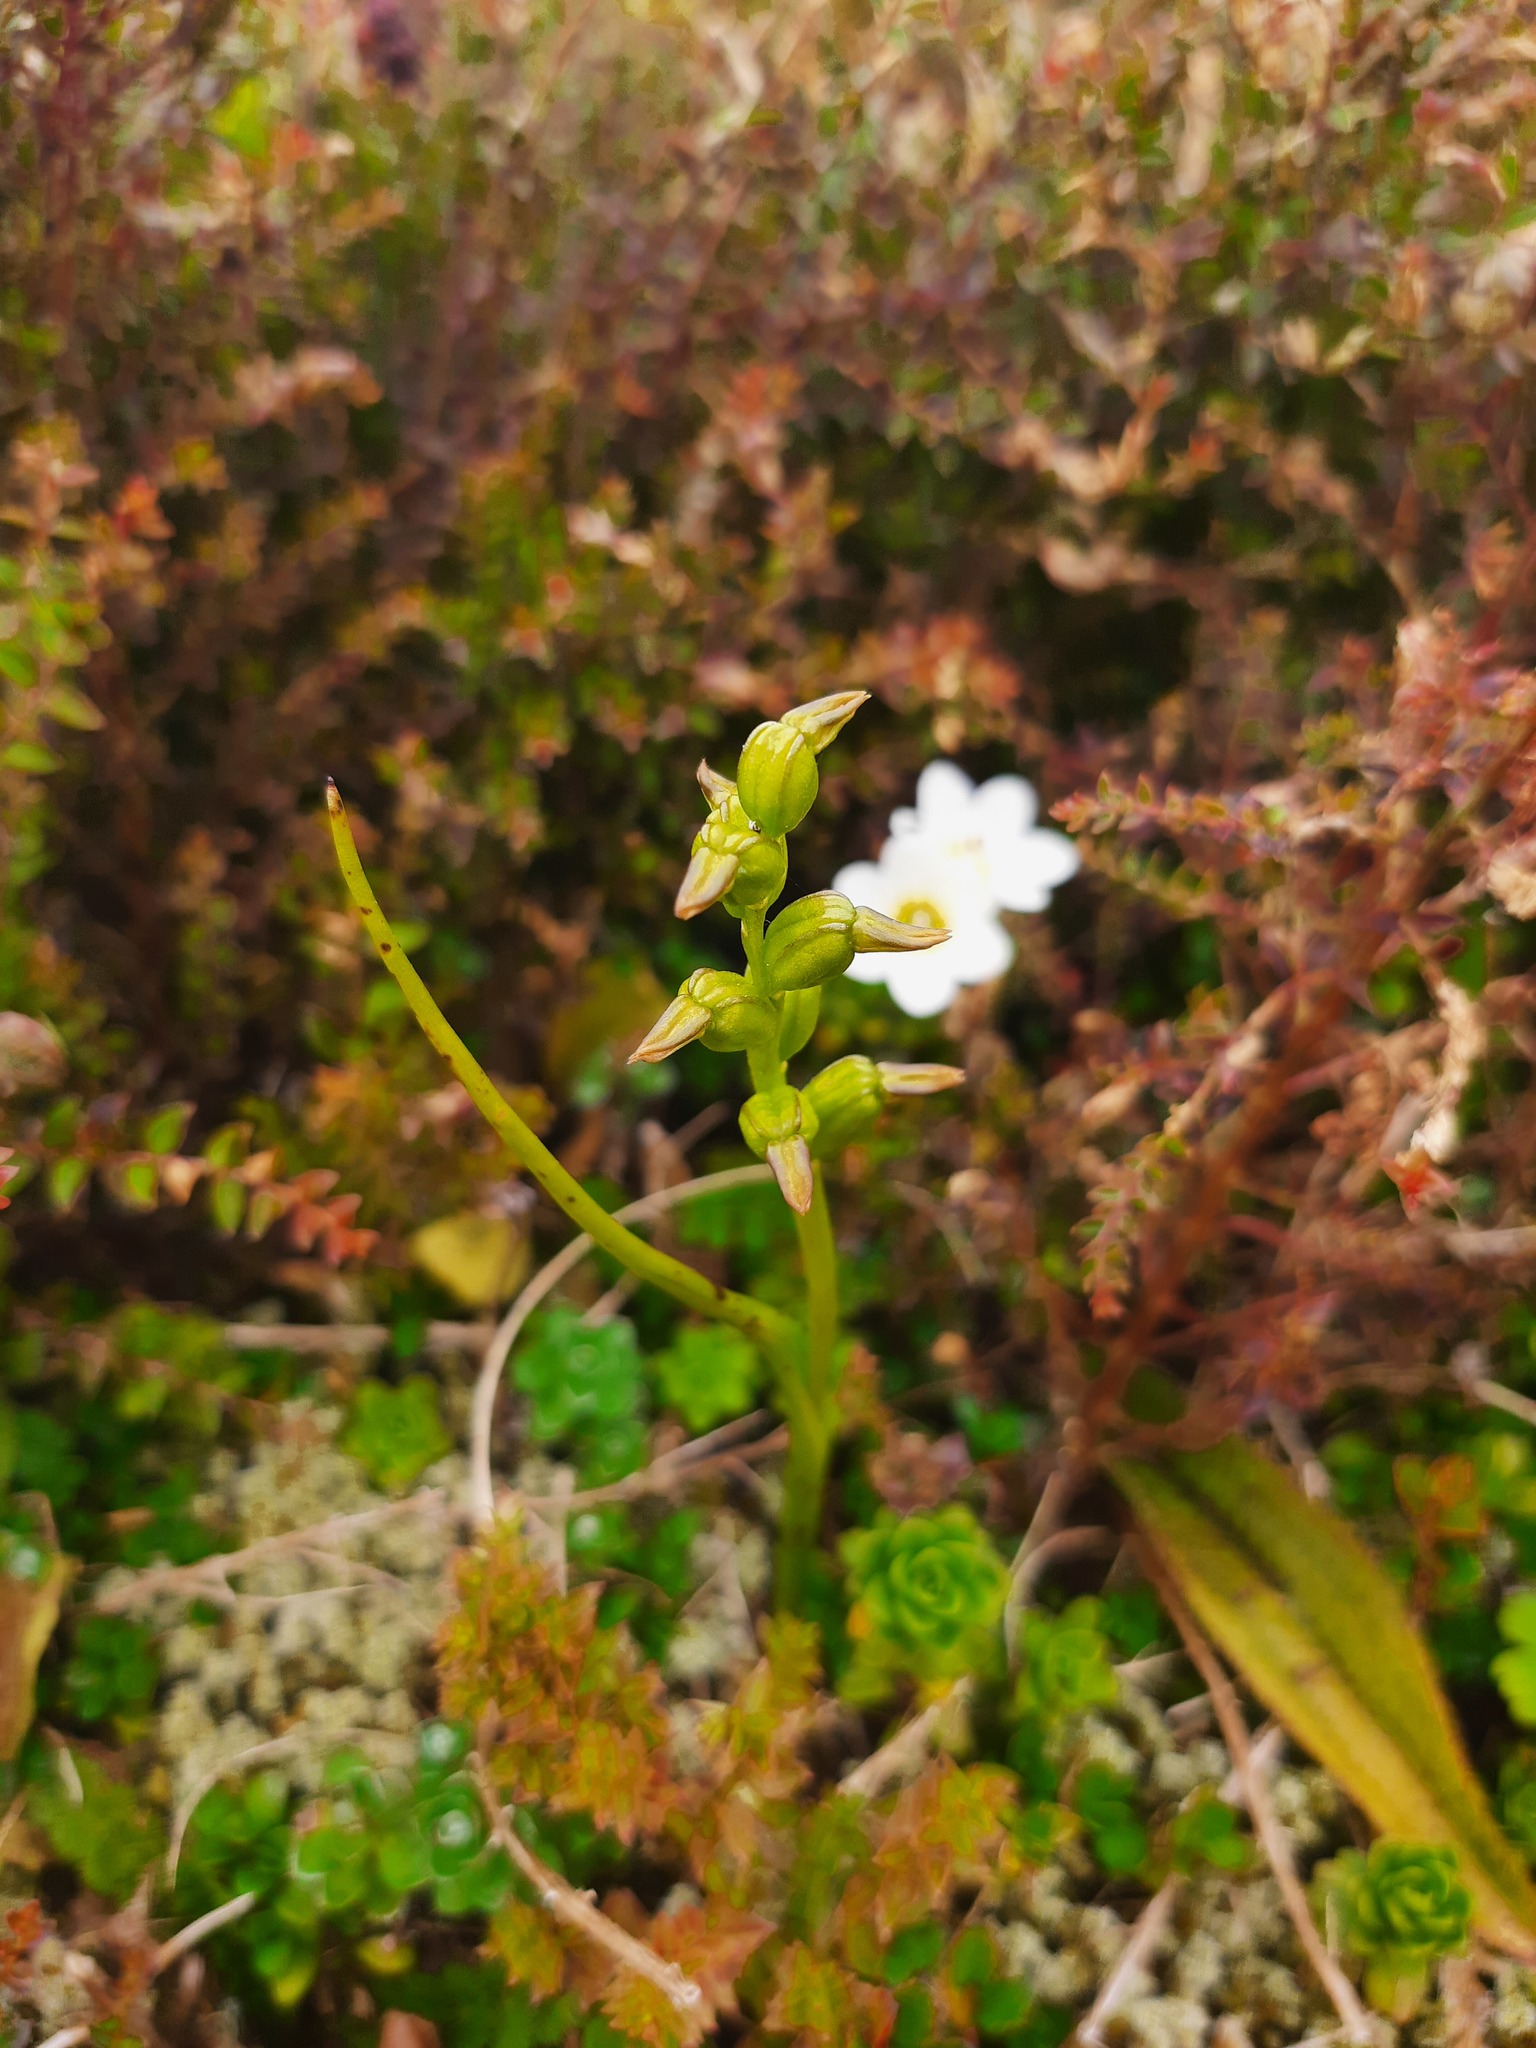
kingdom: Plantae
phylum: Tracheophyta
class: Liliopsida
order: Asparagales
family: Orchidaceae
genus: Prasophyllum
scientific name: Prasophyllum colensoi
